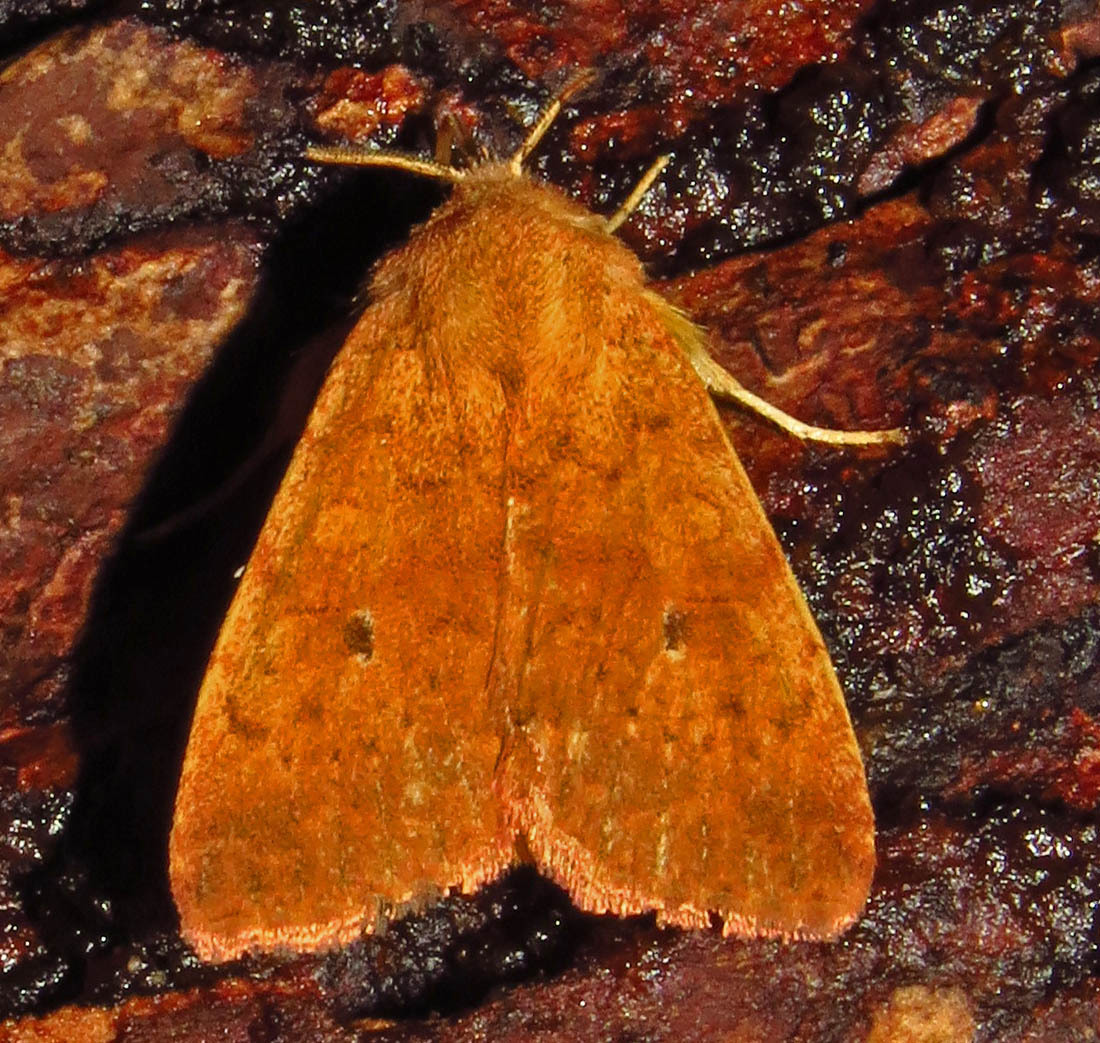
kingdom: Animalia
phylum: Arthropoda
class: Insecta
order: Lepidoptera
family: Noctuidae
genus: Agrochola
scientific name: Agrochola bicolorago
